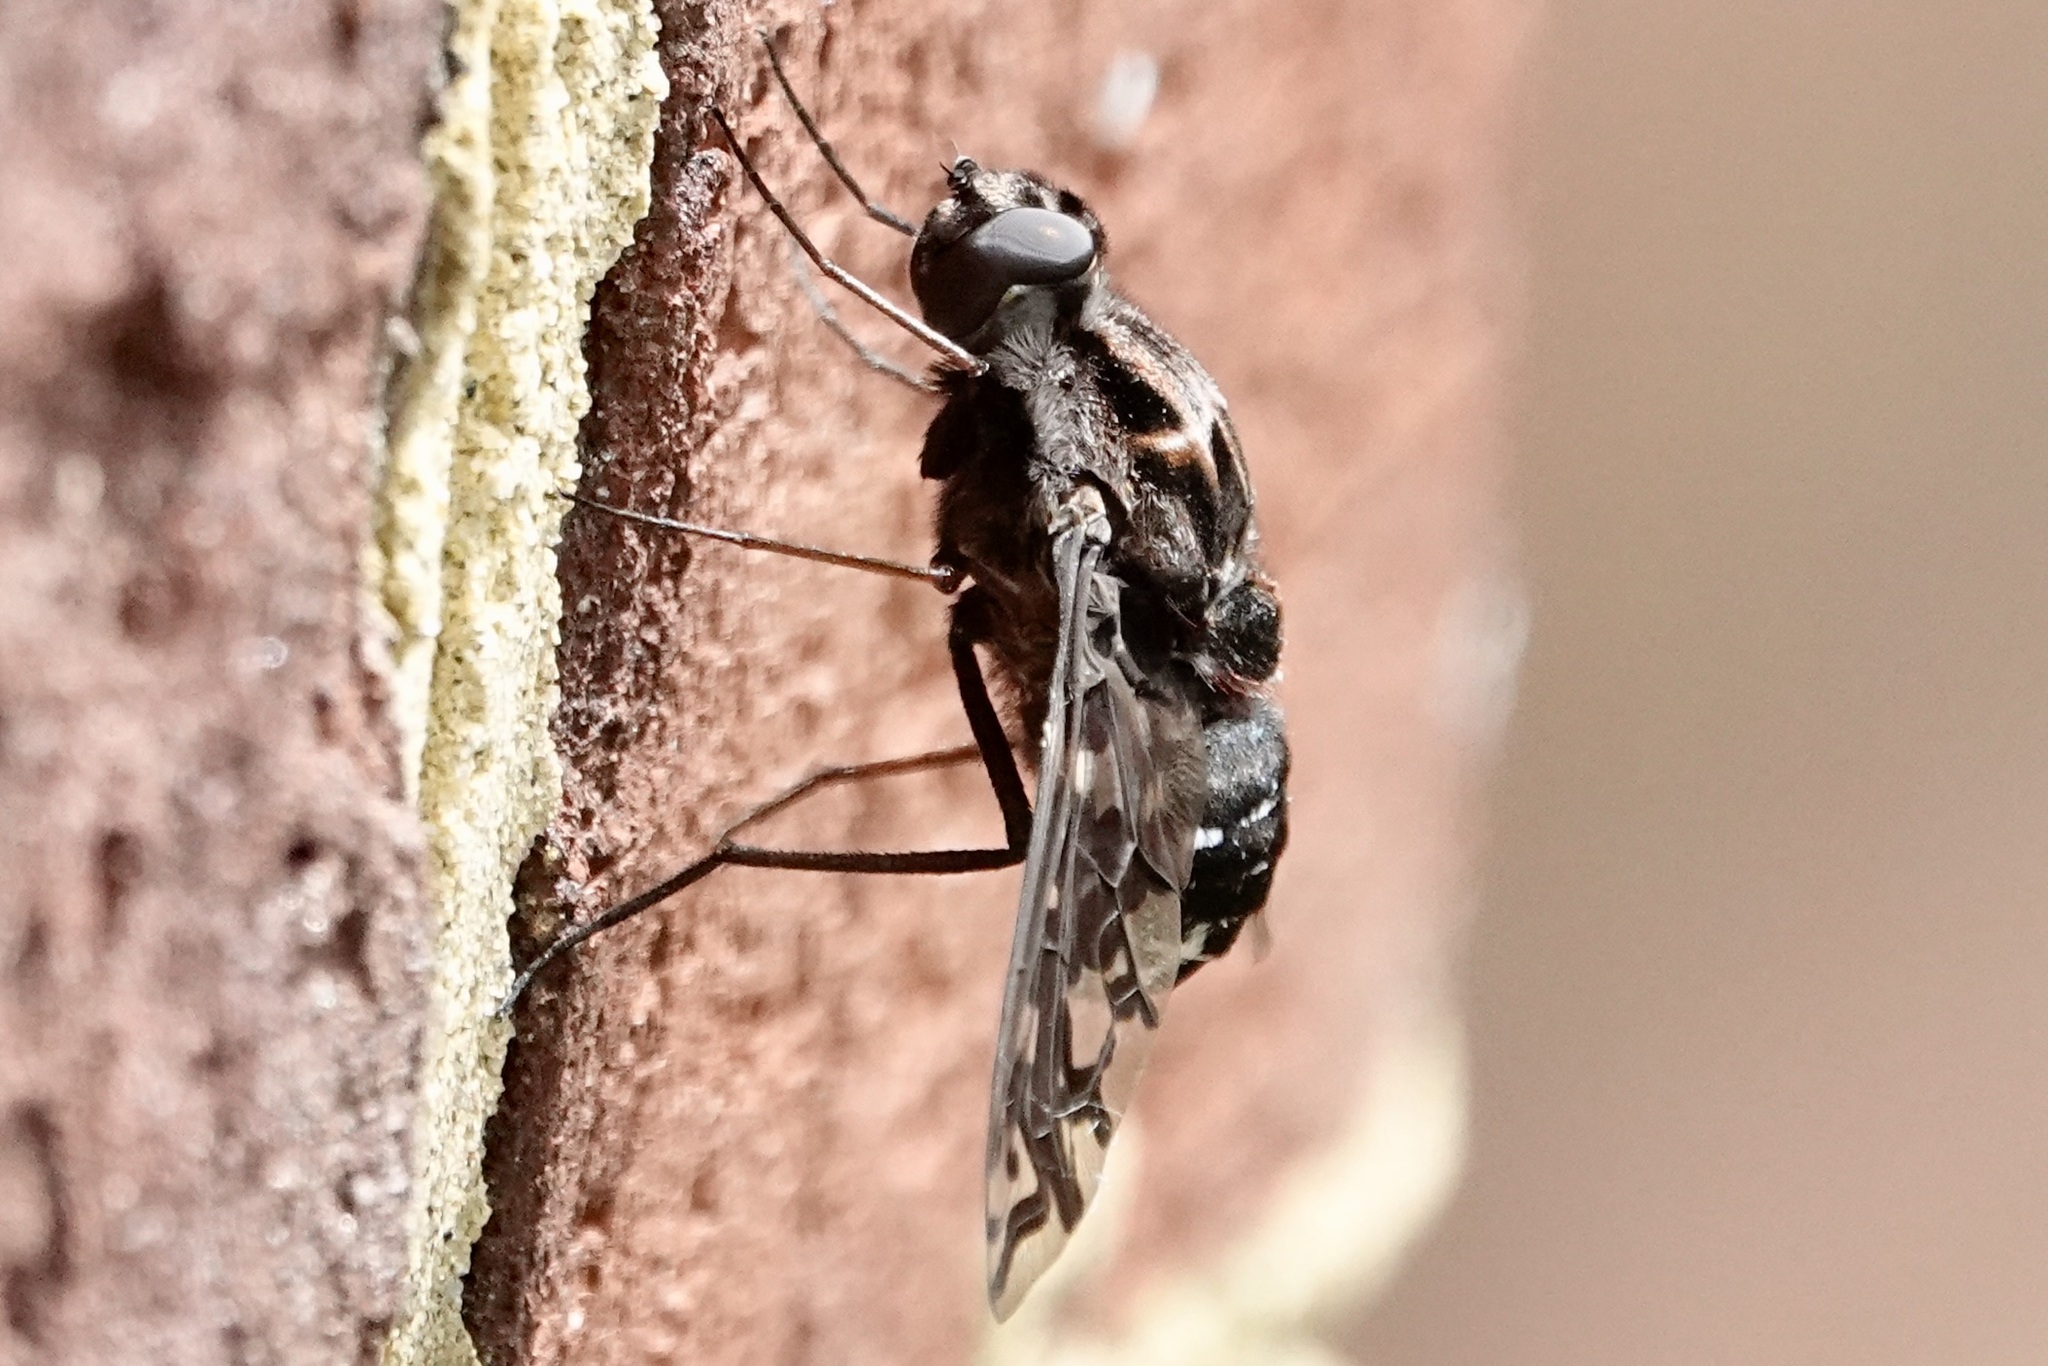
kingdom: Animalia
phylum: Arthropoda
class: Insecta
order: Diptera
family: Bombyliidae
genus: Xenox
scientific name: Xenox tigrinus
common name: Tiger bee fly
